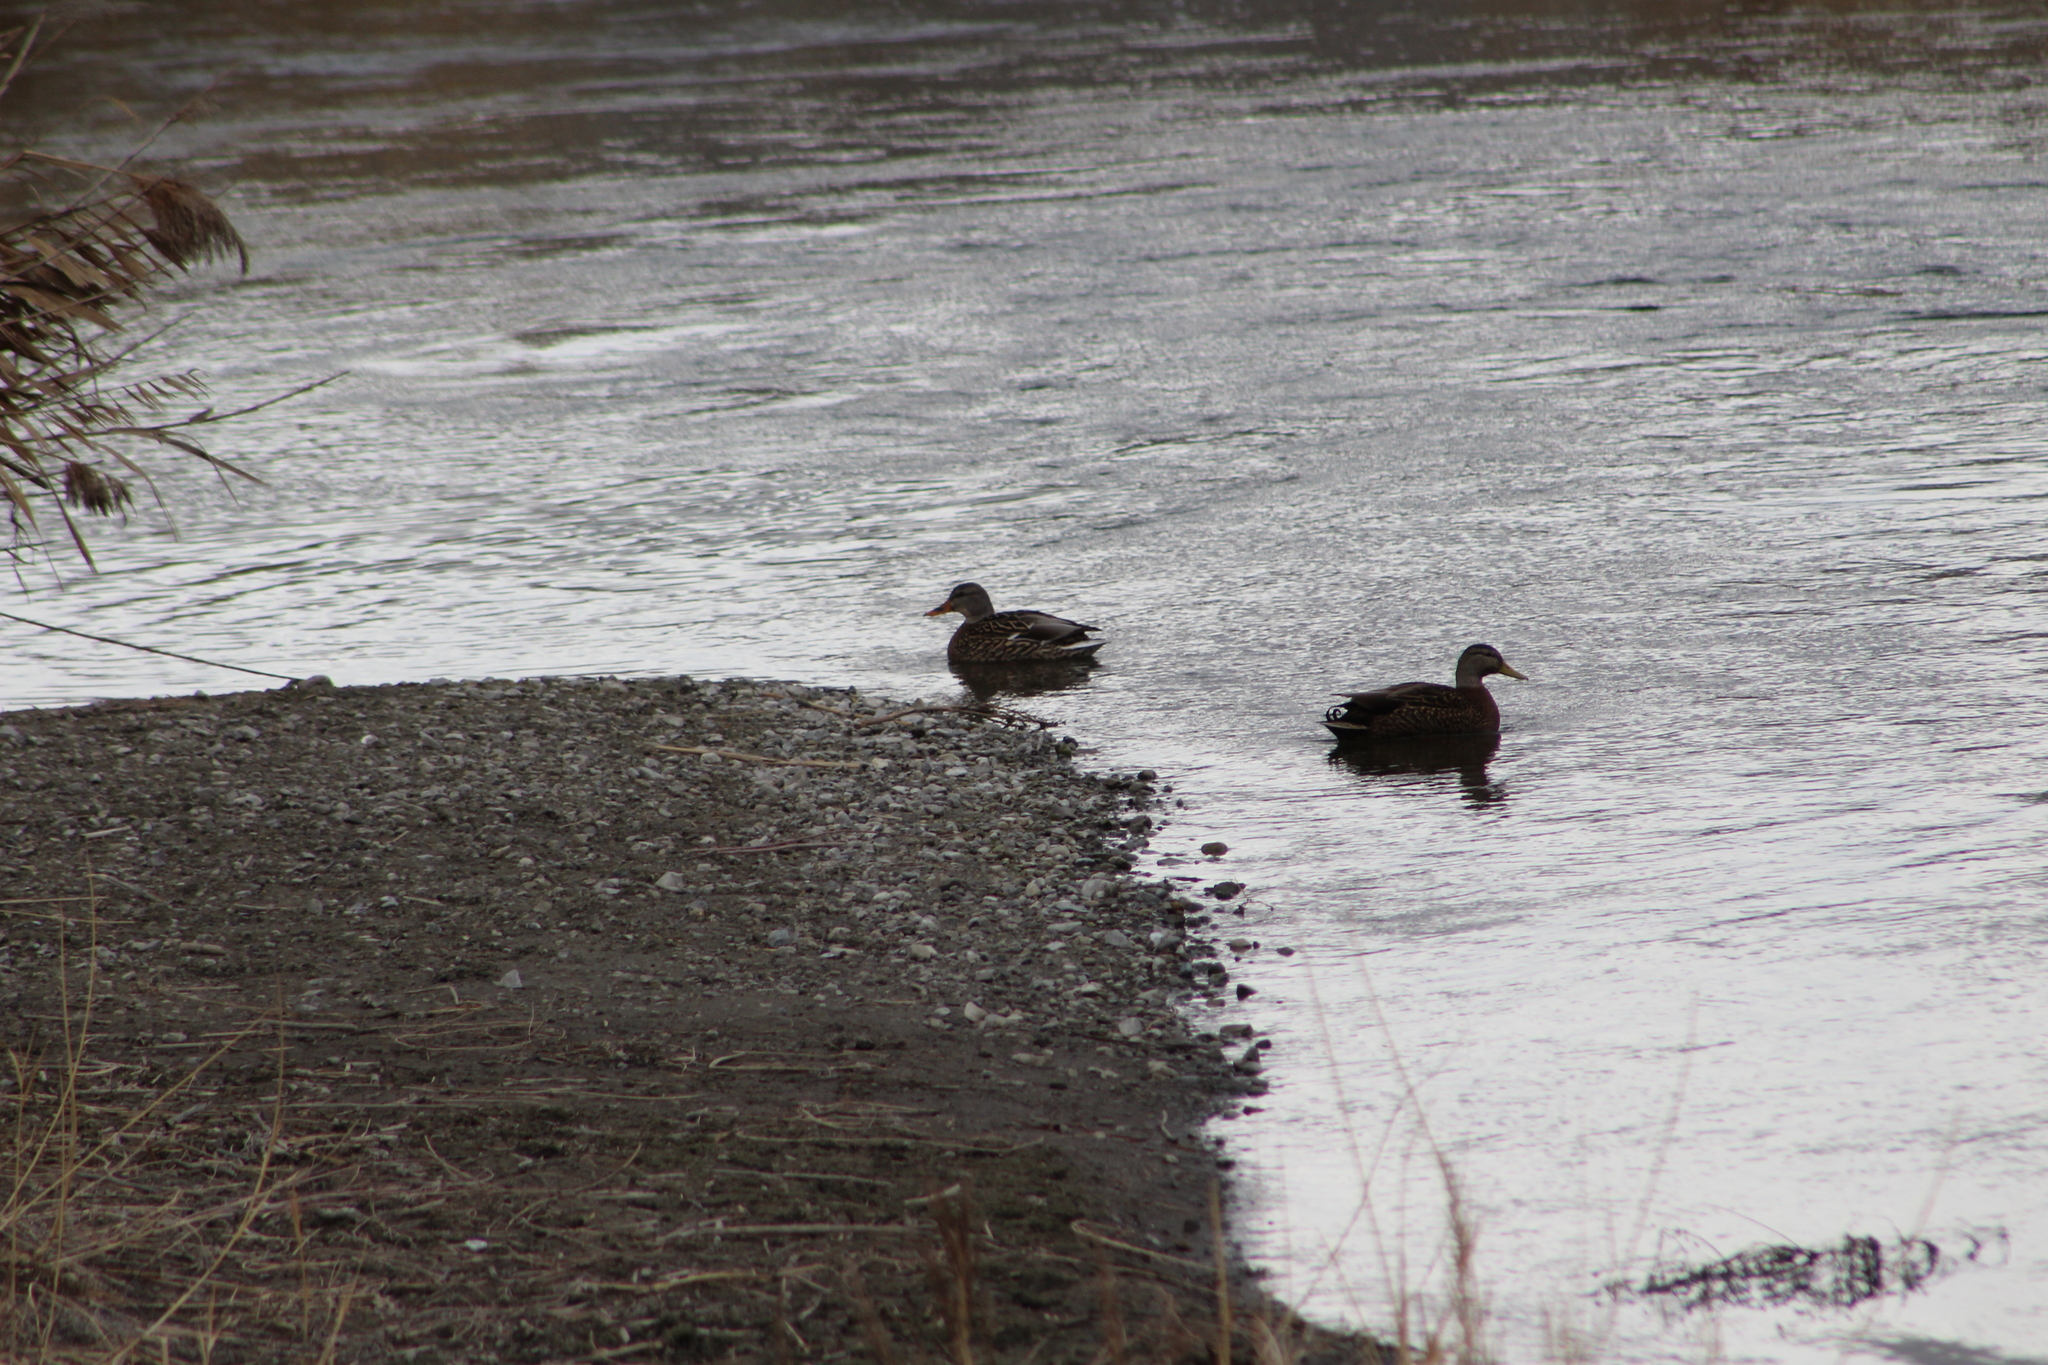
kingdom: Animalia
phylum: Chordata
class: Aves
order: Anseriformes
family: Anatidae
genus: Anas
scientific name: Anas
